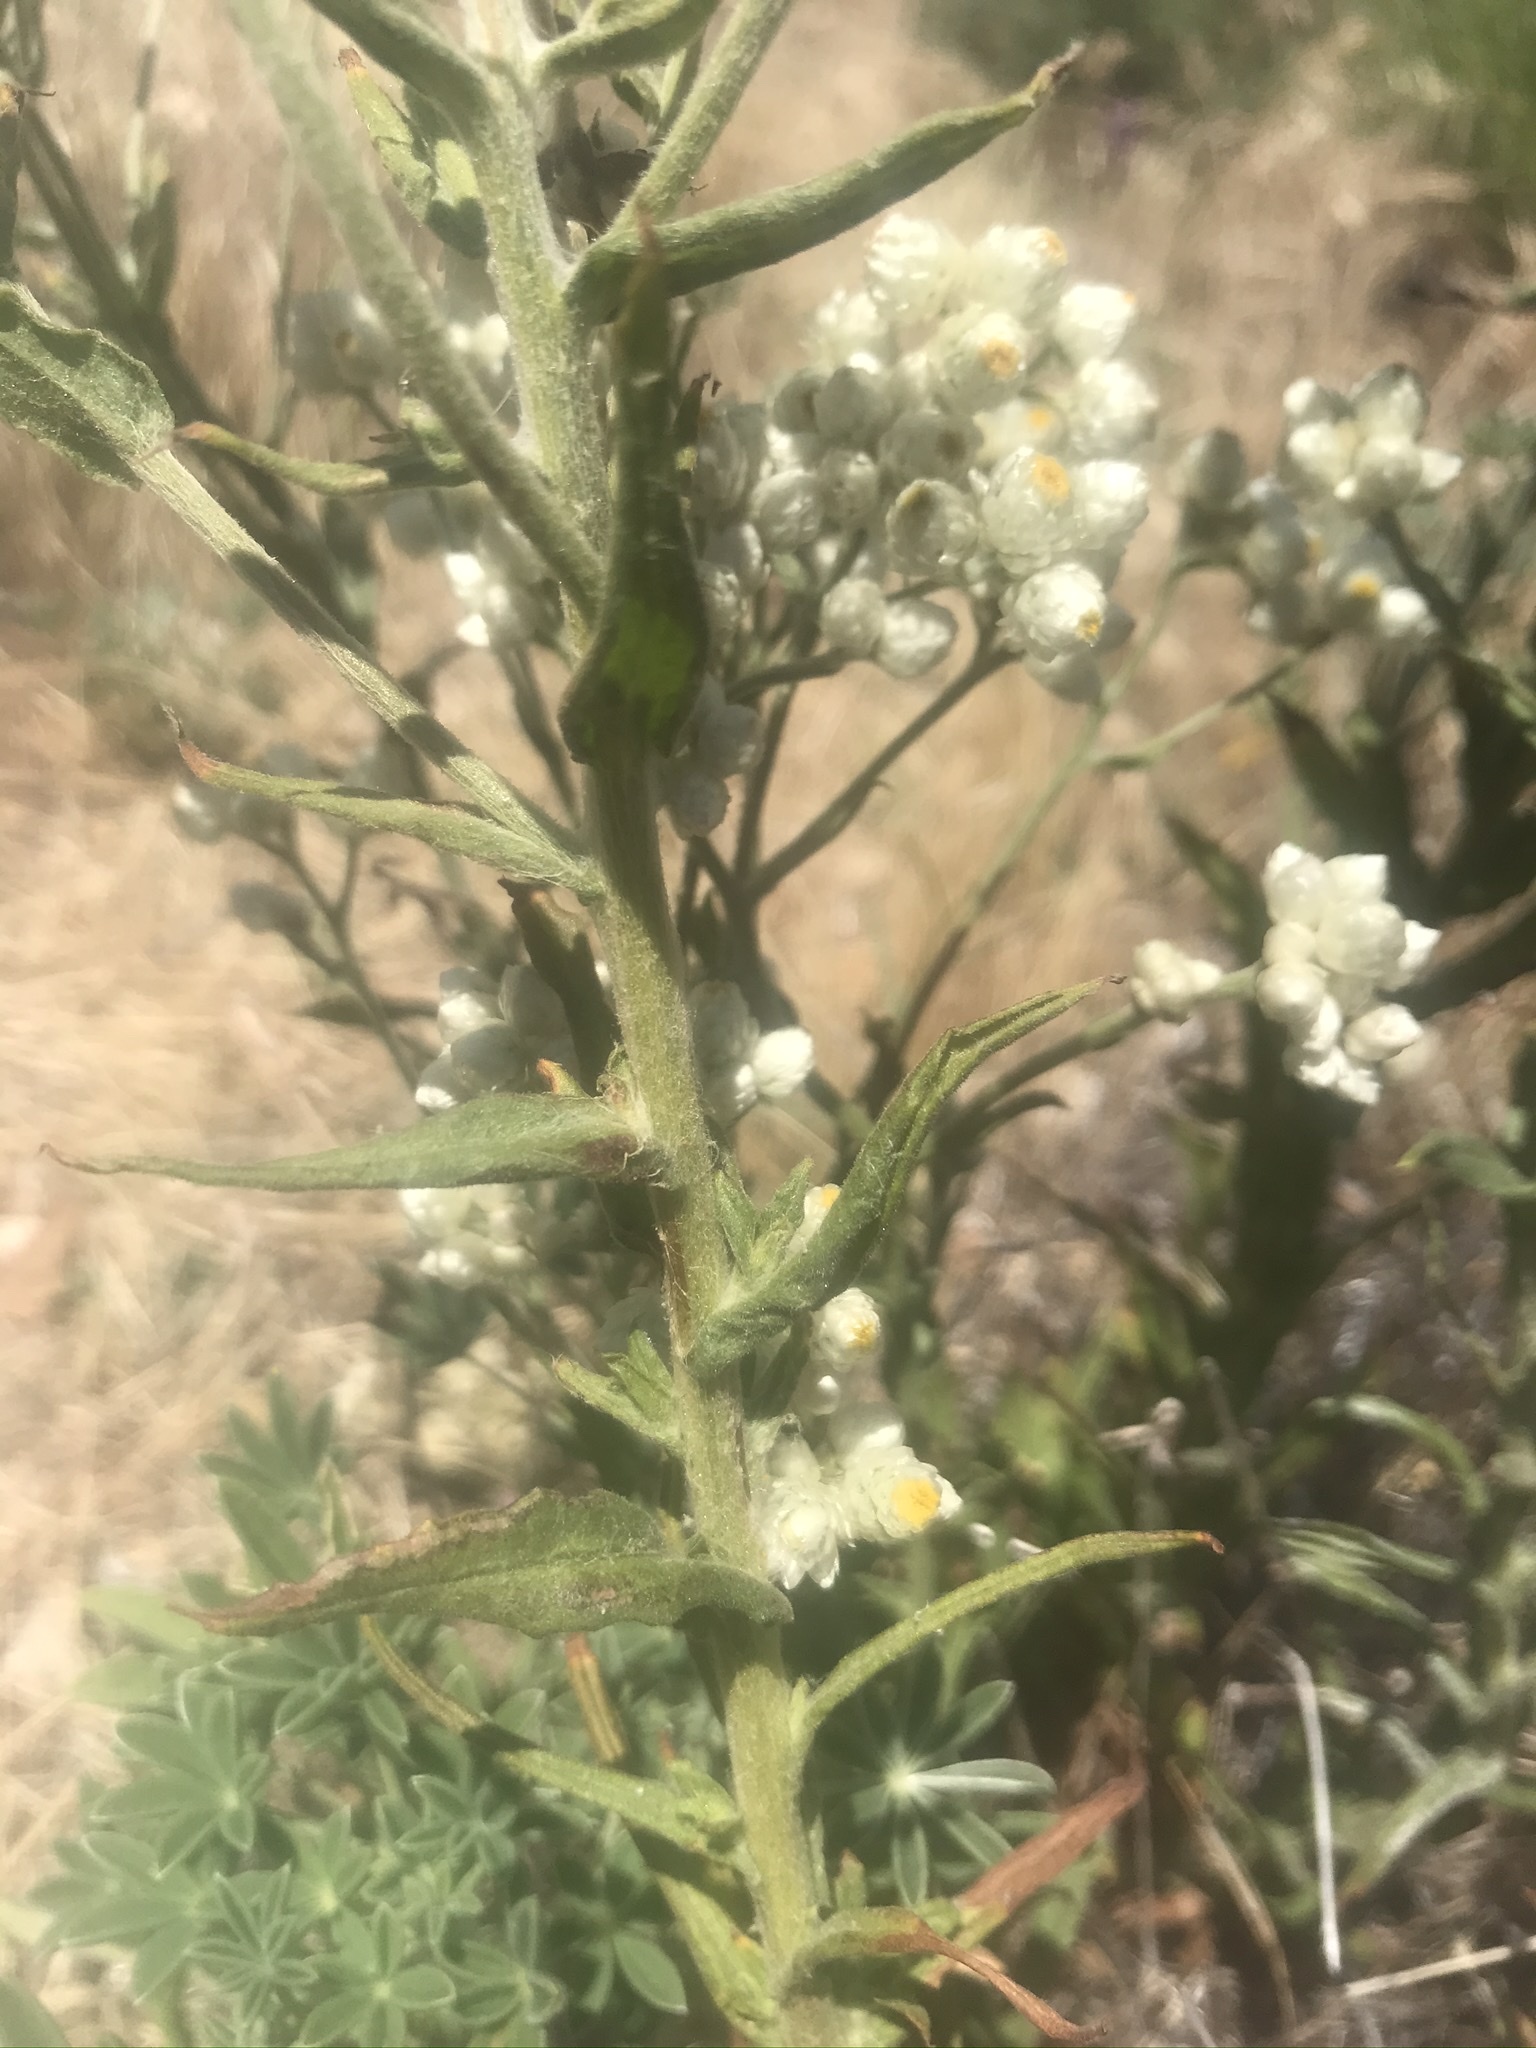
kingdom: Plantae
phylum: Tracheophyta
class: Magnoliopsida
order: Asterales
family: Asteraceae
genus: Pseudognaphalium
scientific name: Pseudognaphalium californicum
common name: California rabbit-tobacco
